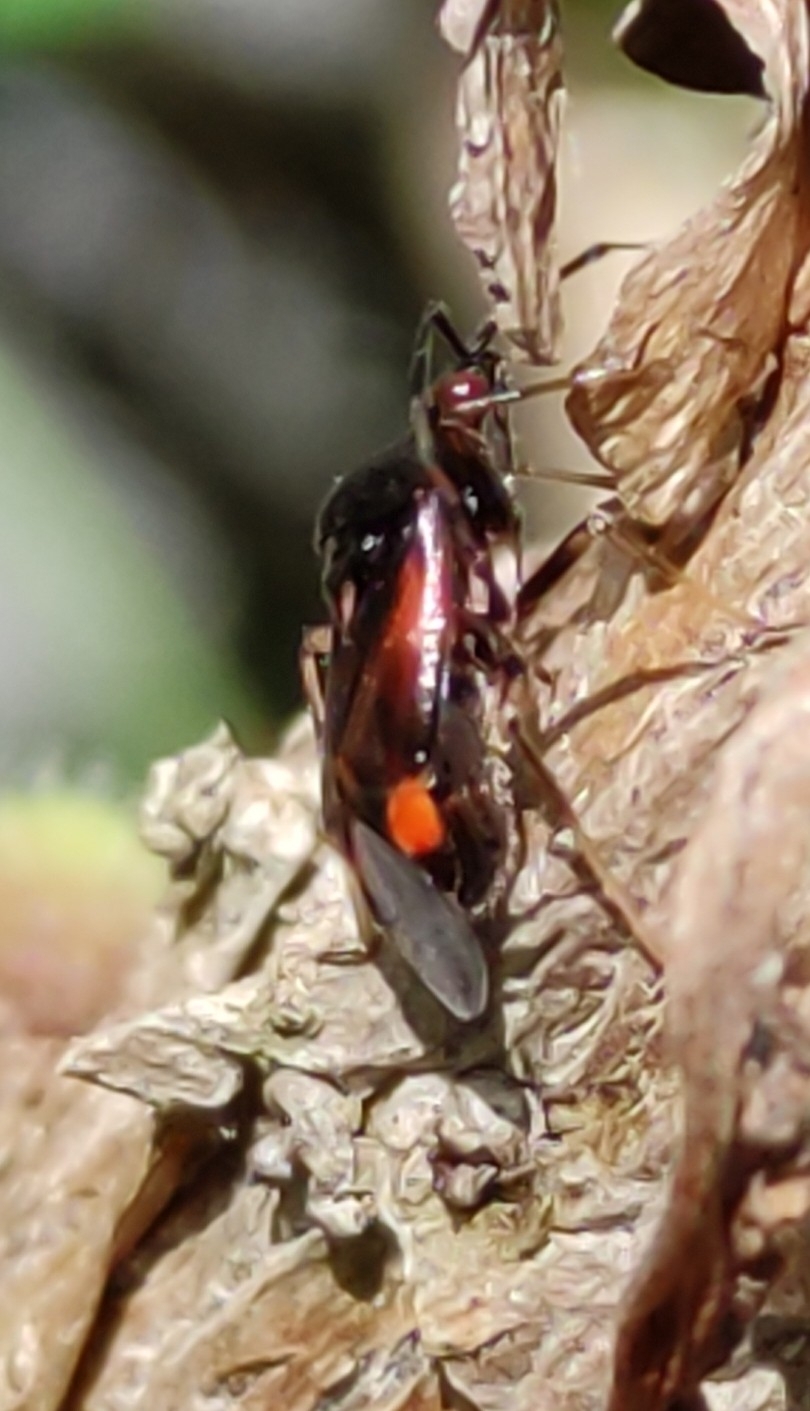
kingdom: Animalia
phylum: Arthropoda
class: Insecta
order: Hemiptera
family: Miridae
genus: Deraeocoris
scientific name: Deraeocoris ruber
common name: Plant bug
